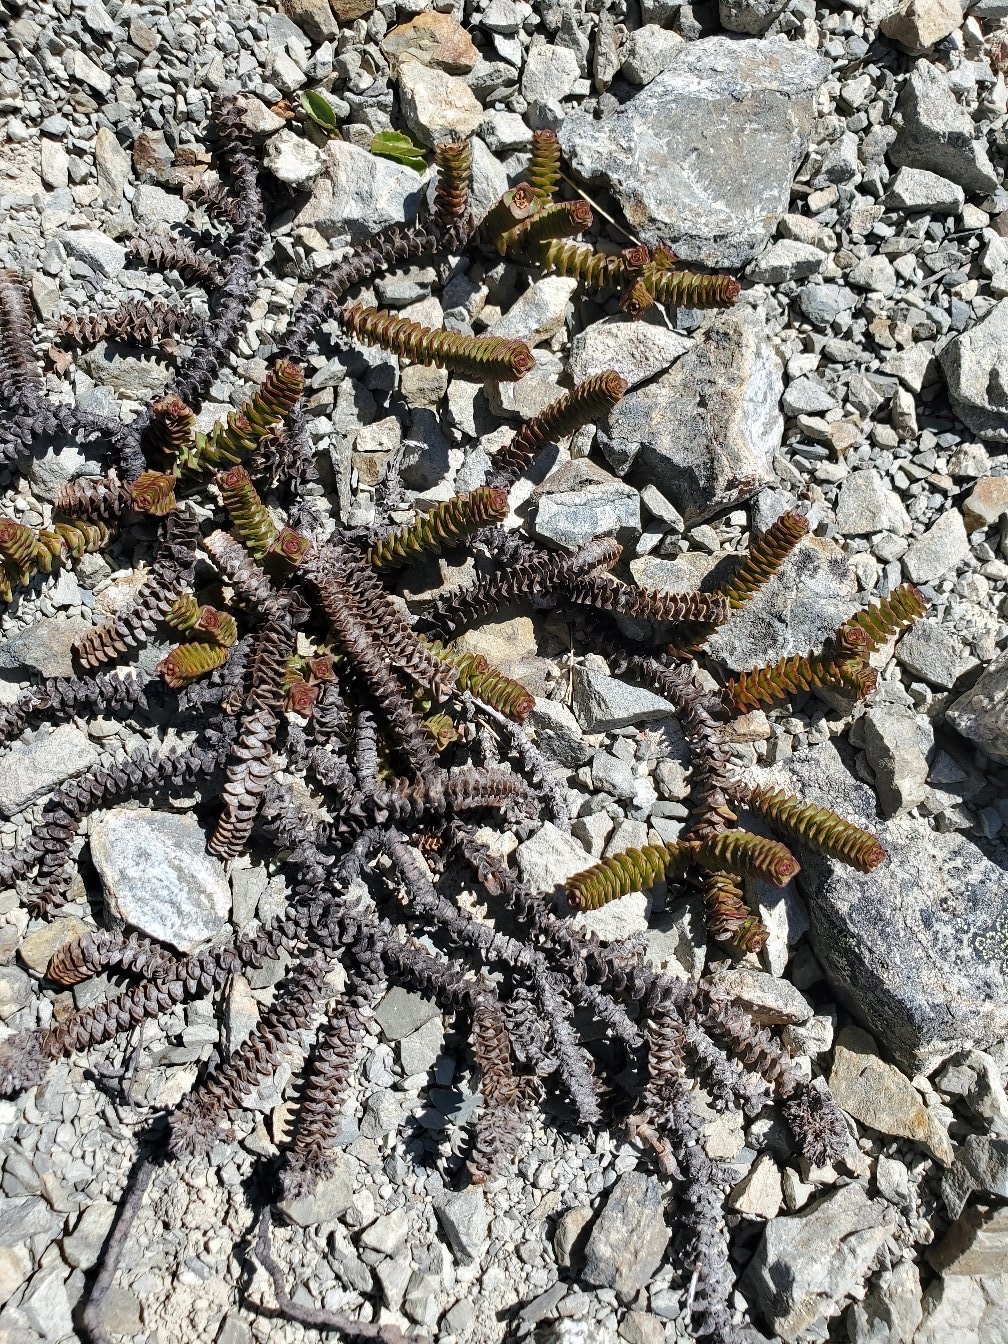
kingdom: Plantae
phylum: Tracheophyta
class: Magnoliopsida
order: Lamiales
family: Plantaginaceae
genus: Veronica
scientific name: Veronica epacridea
